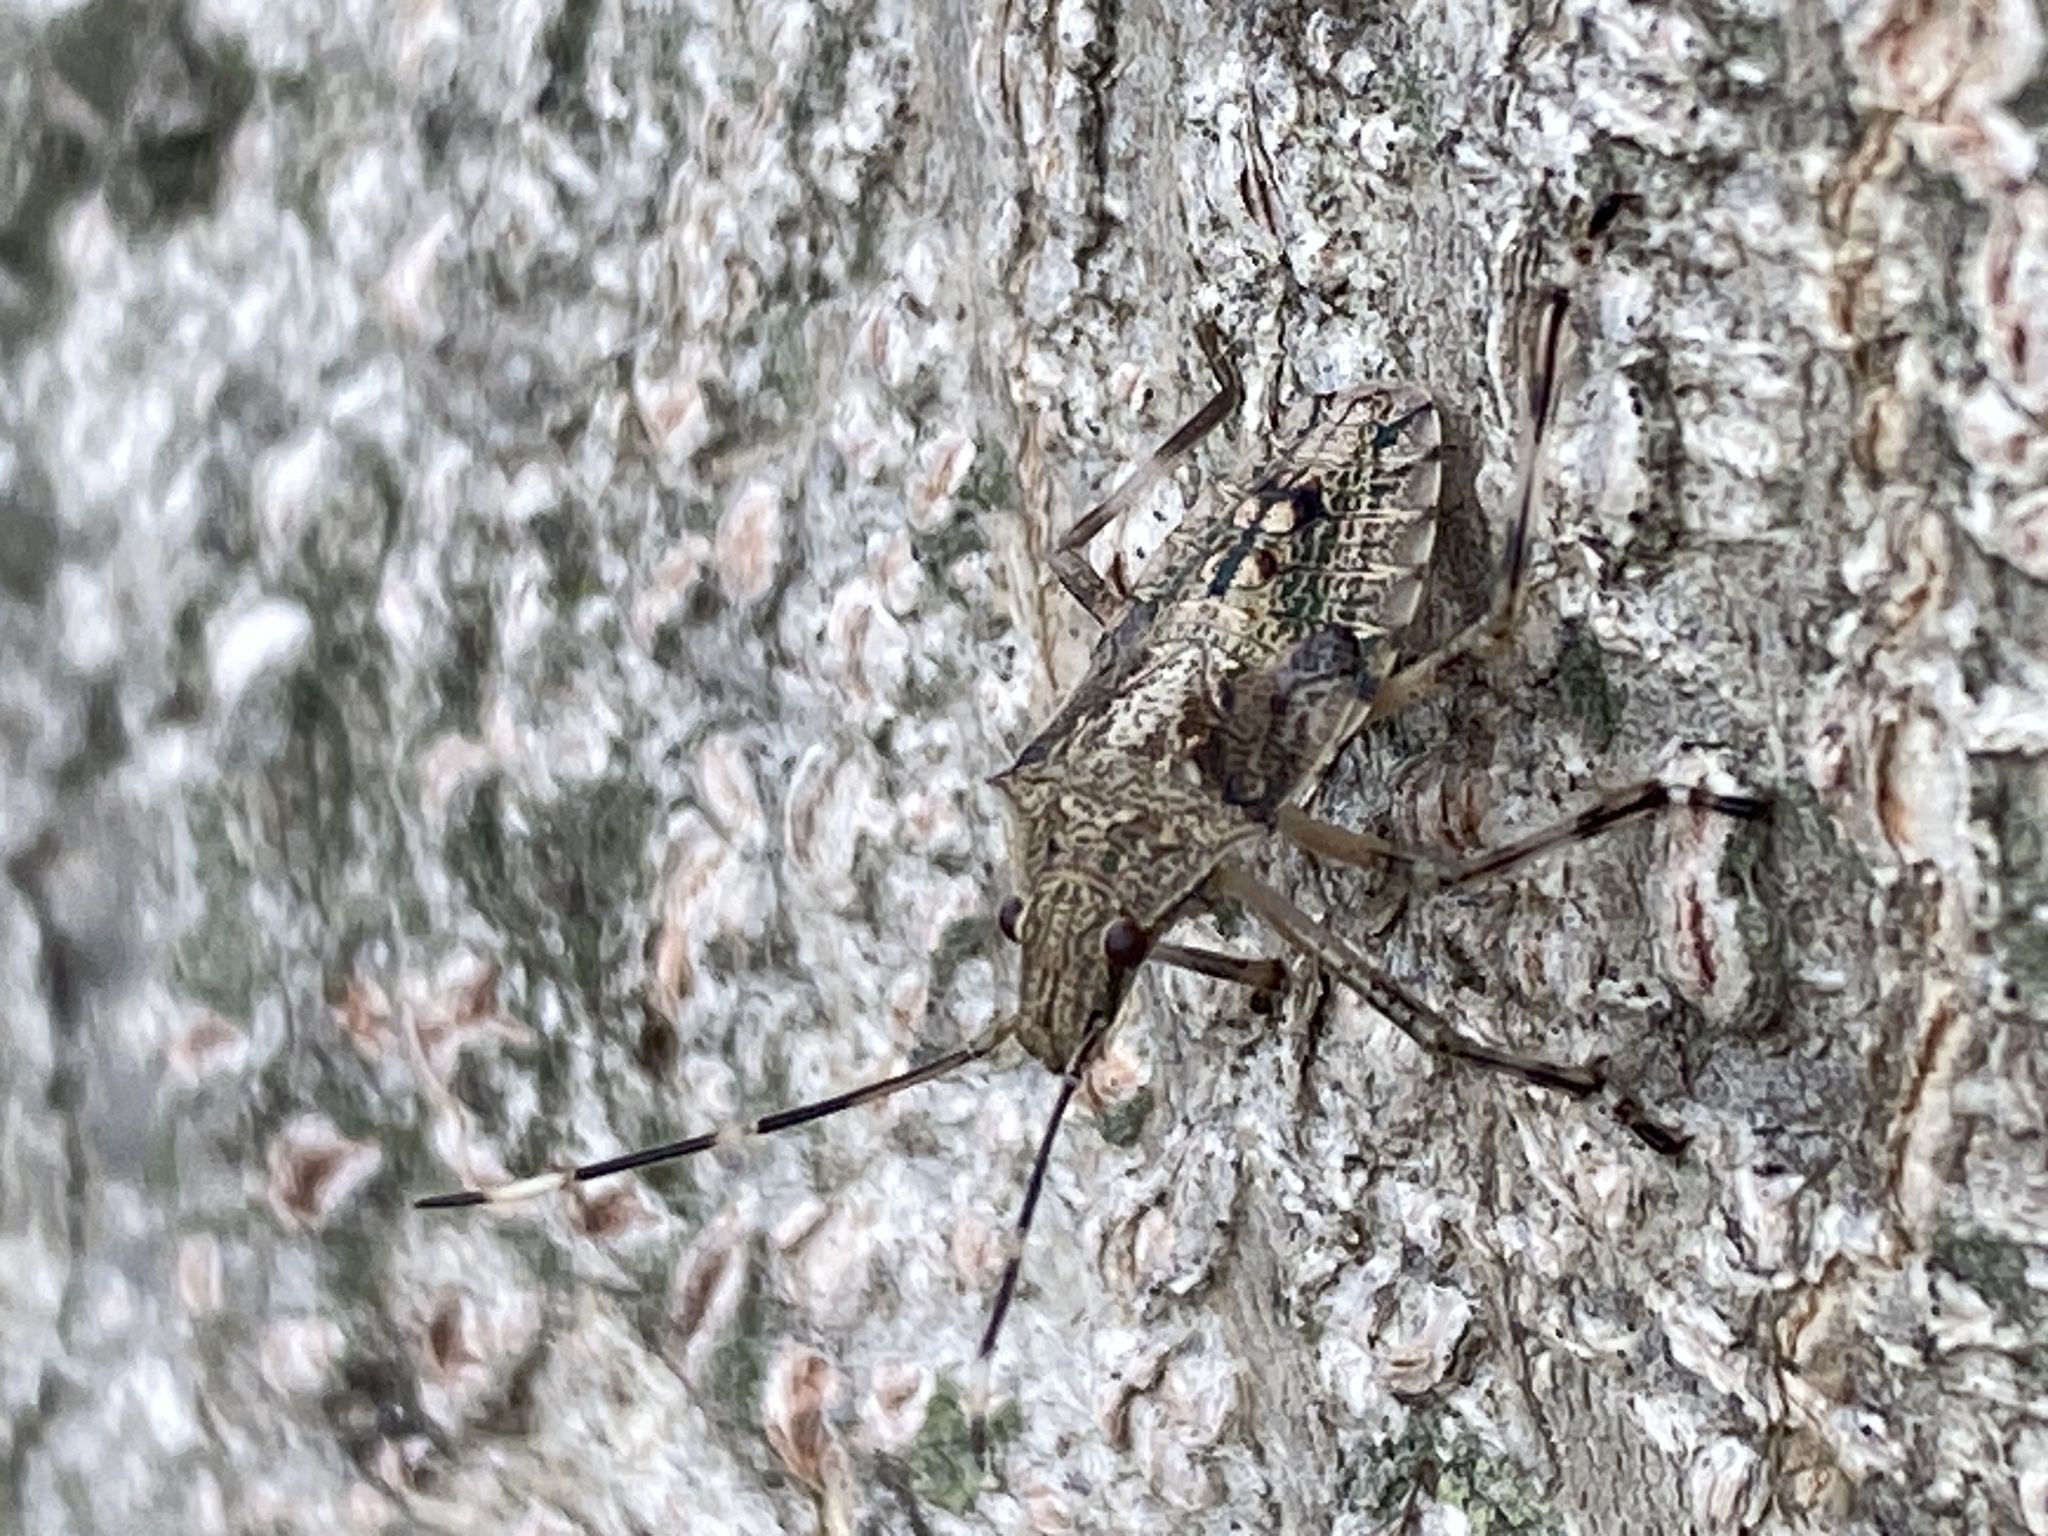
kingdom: Animalia
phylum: Arthropoda
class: Insecta
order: Hemiptera
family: Pentatomidae
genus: Bromocoris
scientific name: Bromocoris
